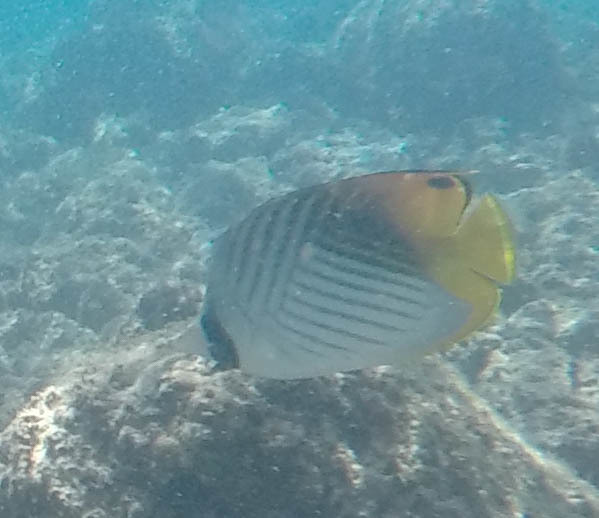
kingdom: Animalia
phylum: Chordata
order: Perciformes
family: Chaetodontidae
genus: Chaetodon
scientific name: Chaetodon auriga
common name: Threadfin butterflyfish
